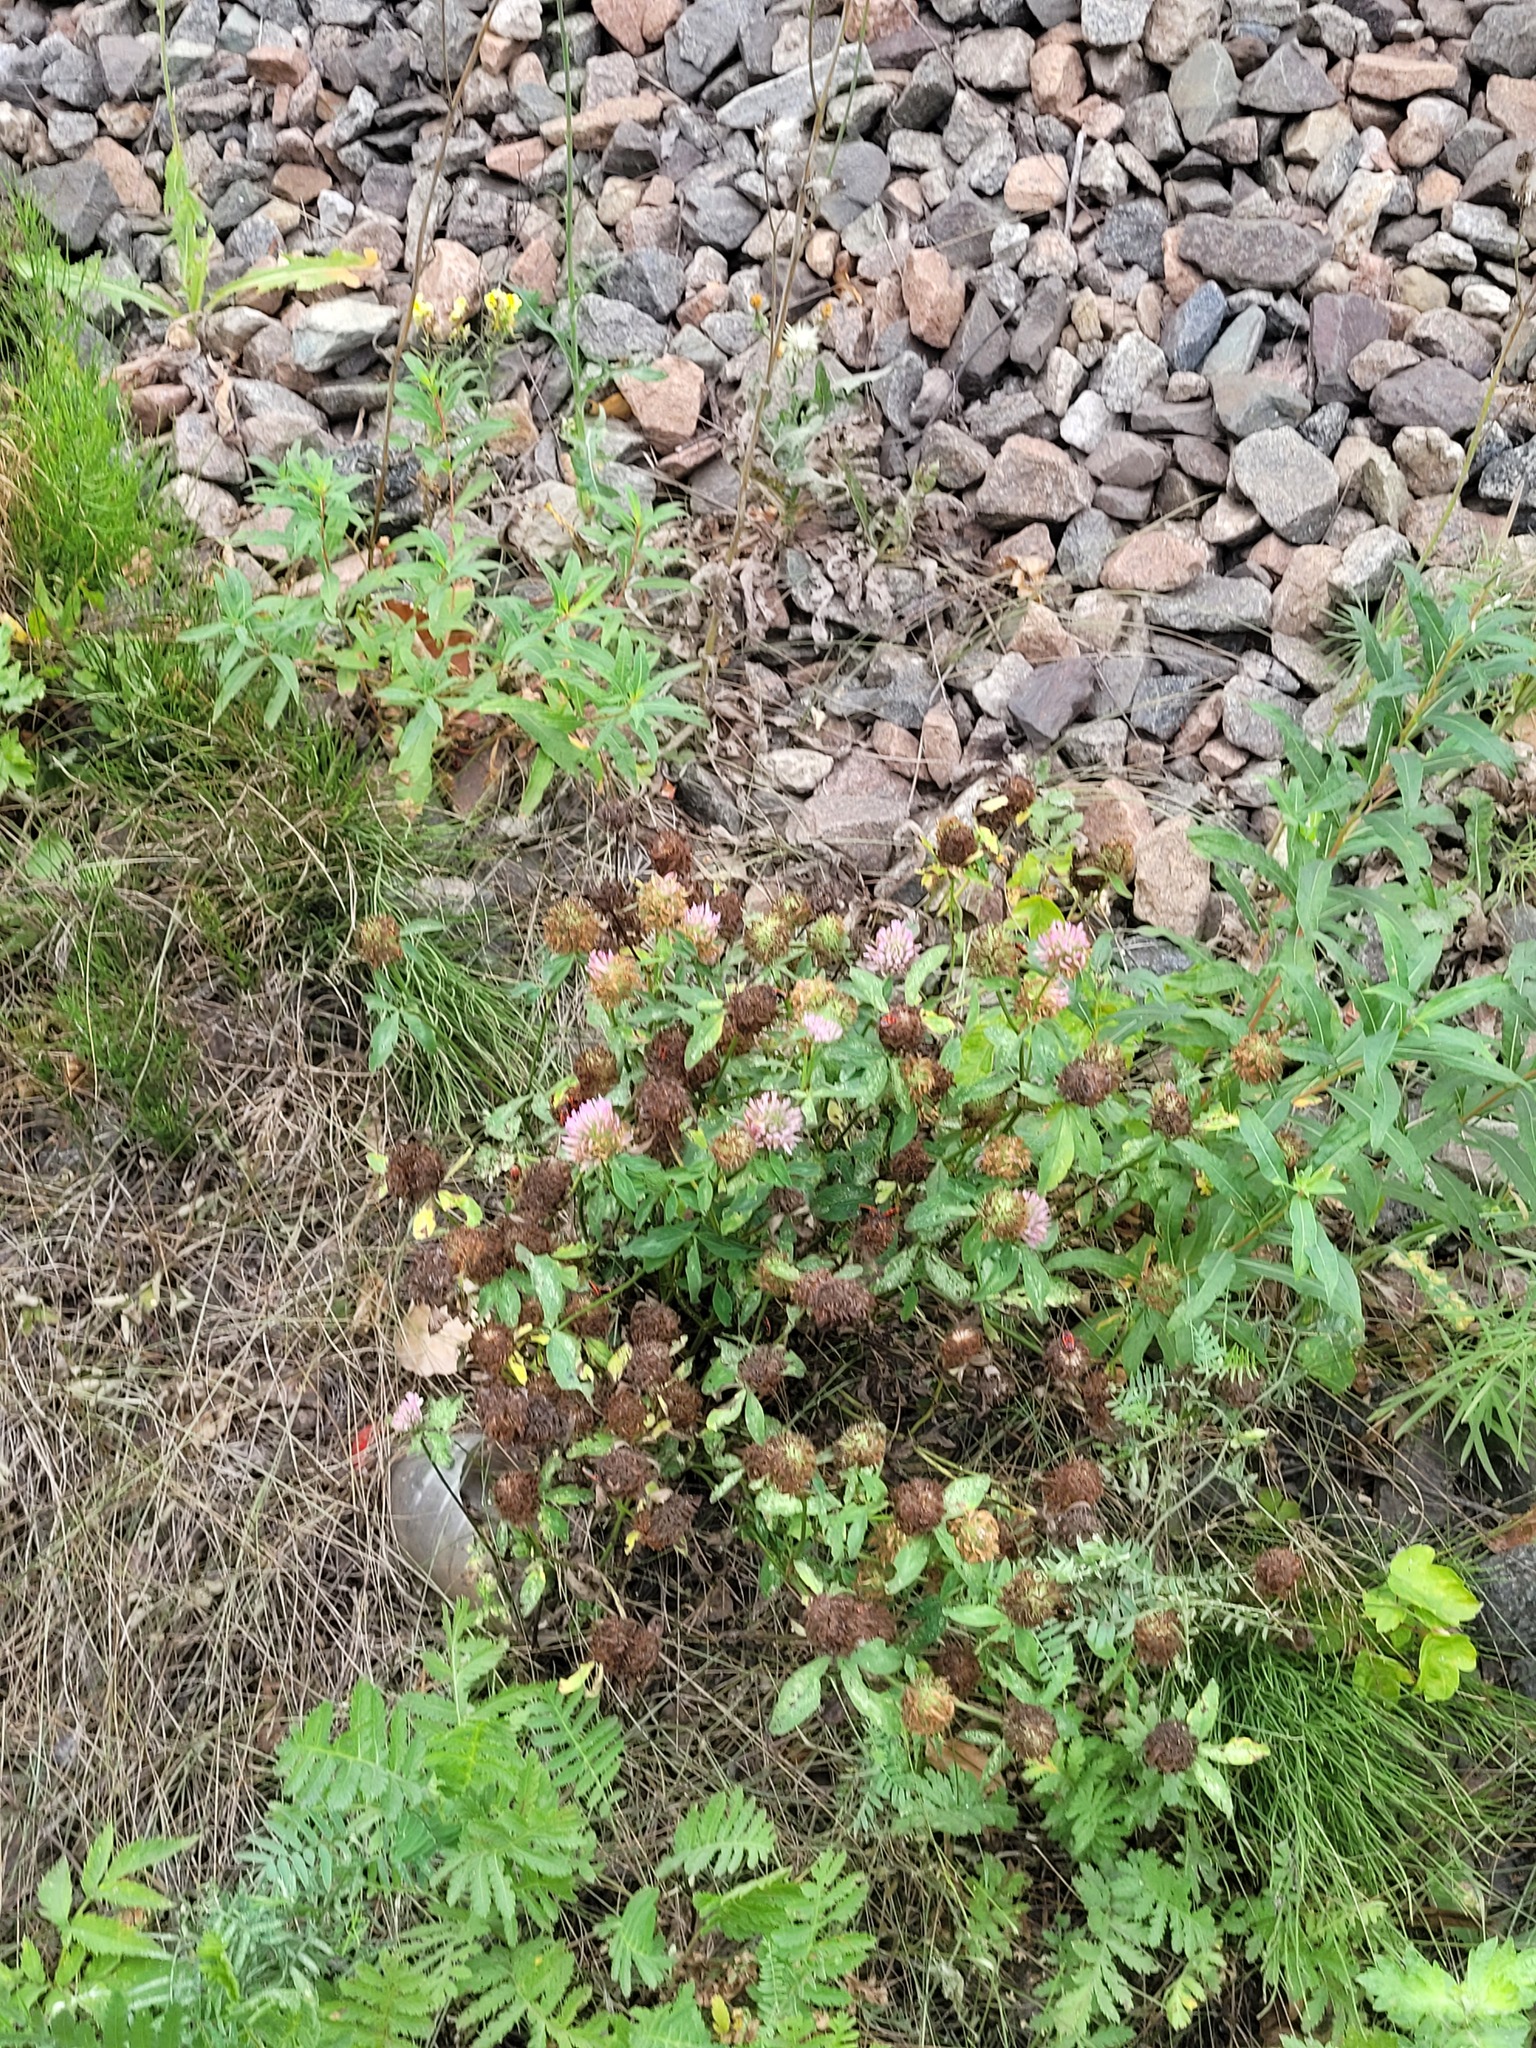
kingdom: Plantae
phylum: Tracheophyta
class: Magnoliopsida
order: Fabales
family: Fabaceae
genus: Trifolium
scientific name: Trifolium pratense
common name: Red clover
